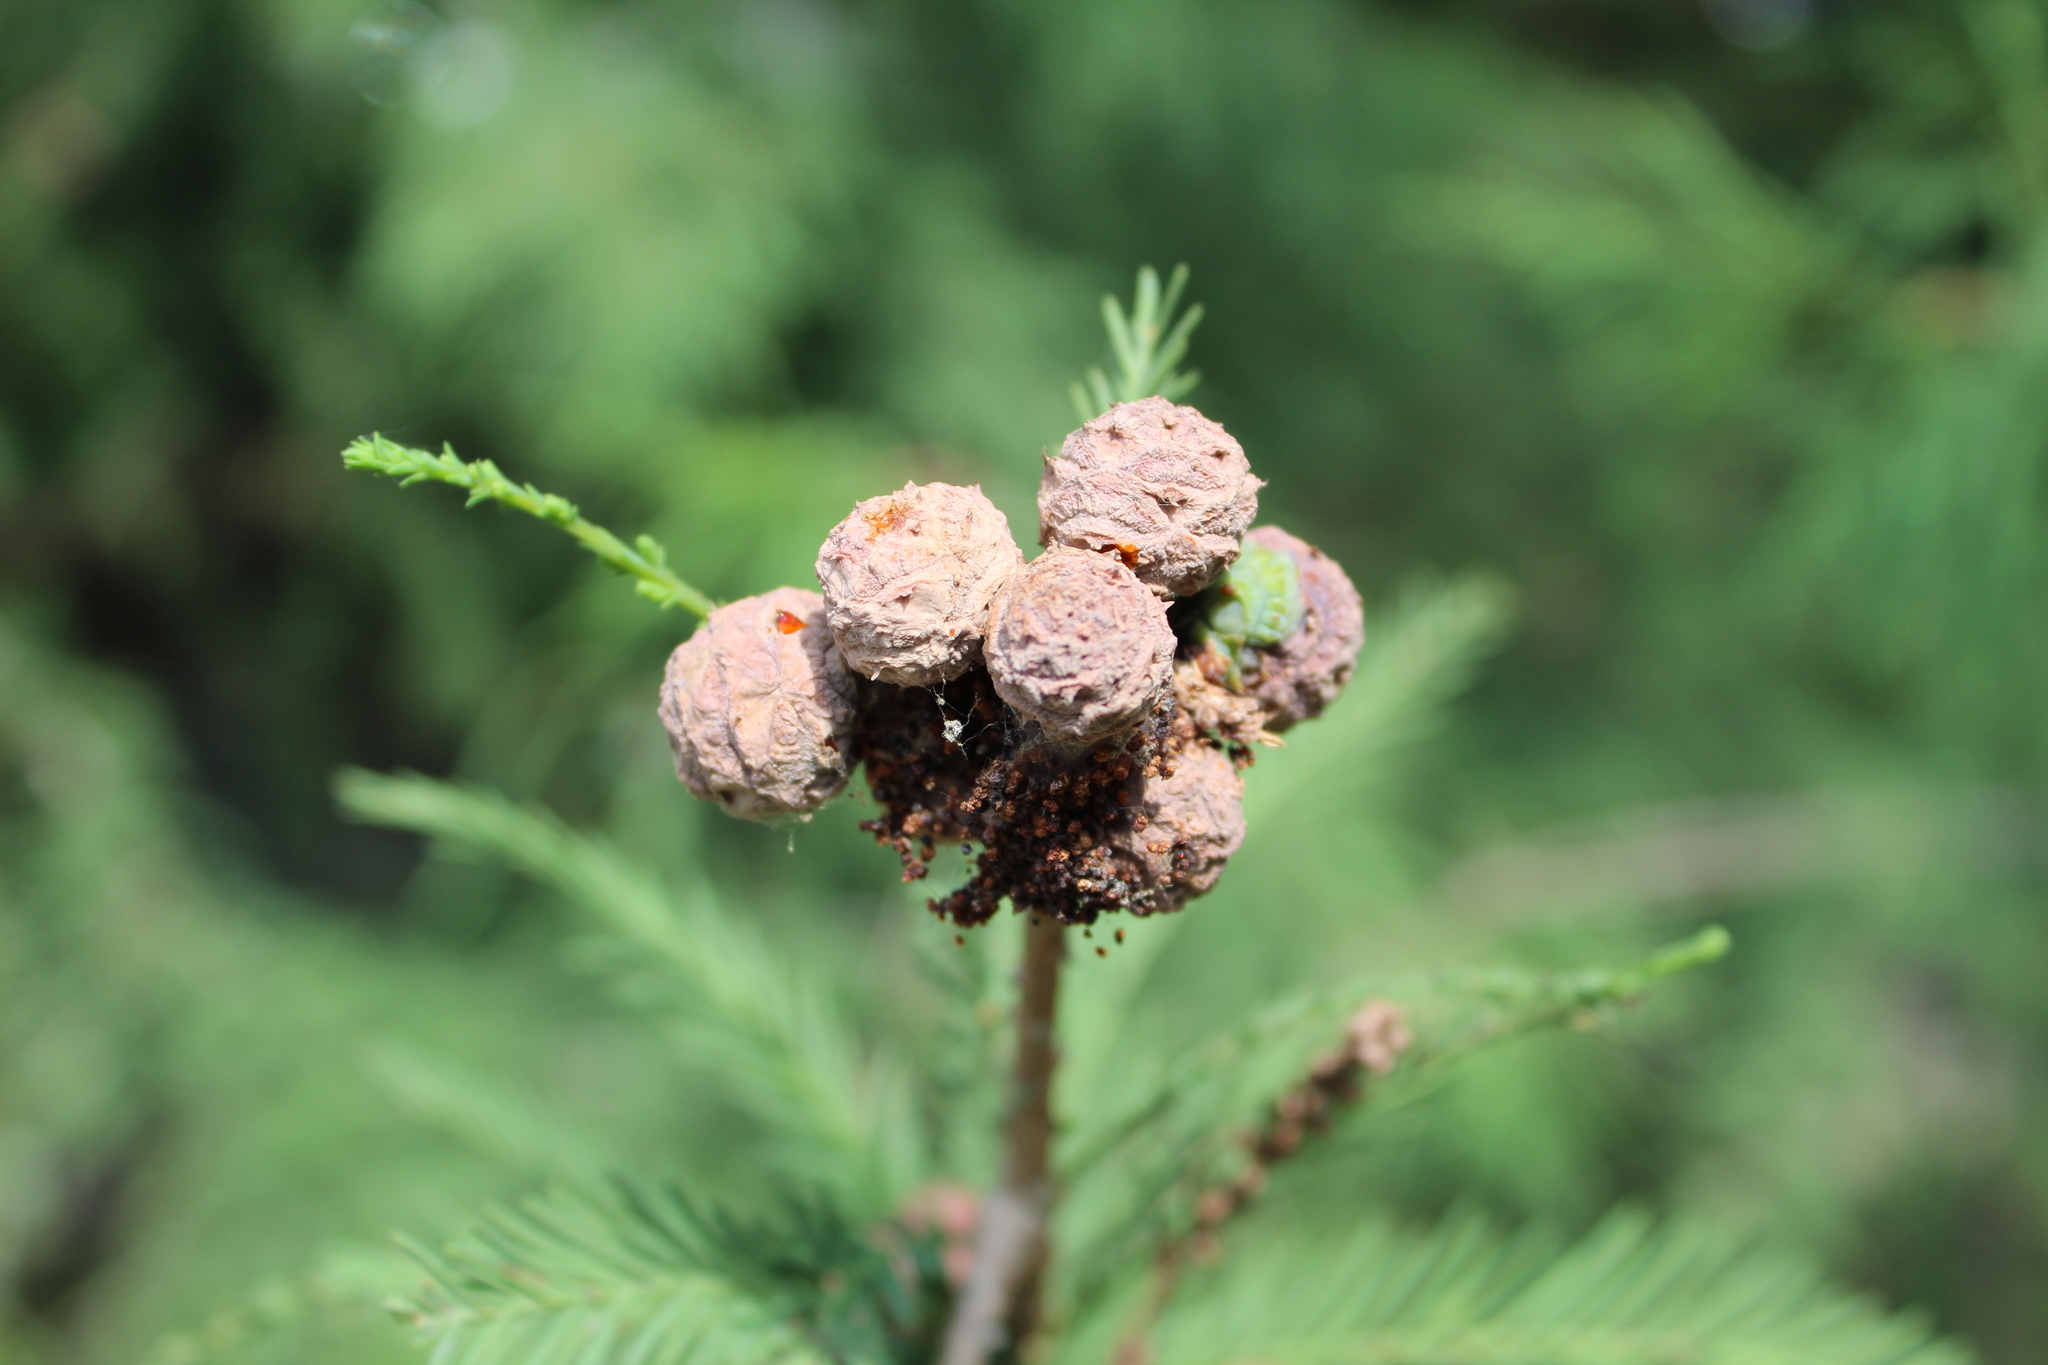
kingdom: Plantae
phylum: Tracheophyta
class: Pinopsida
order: Pinales
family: Cupressaceae
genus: Taxodium
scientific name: Taxodium mucronatum
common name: Montezume bald cypress
